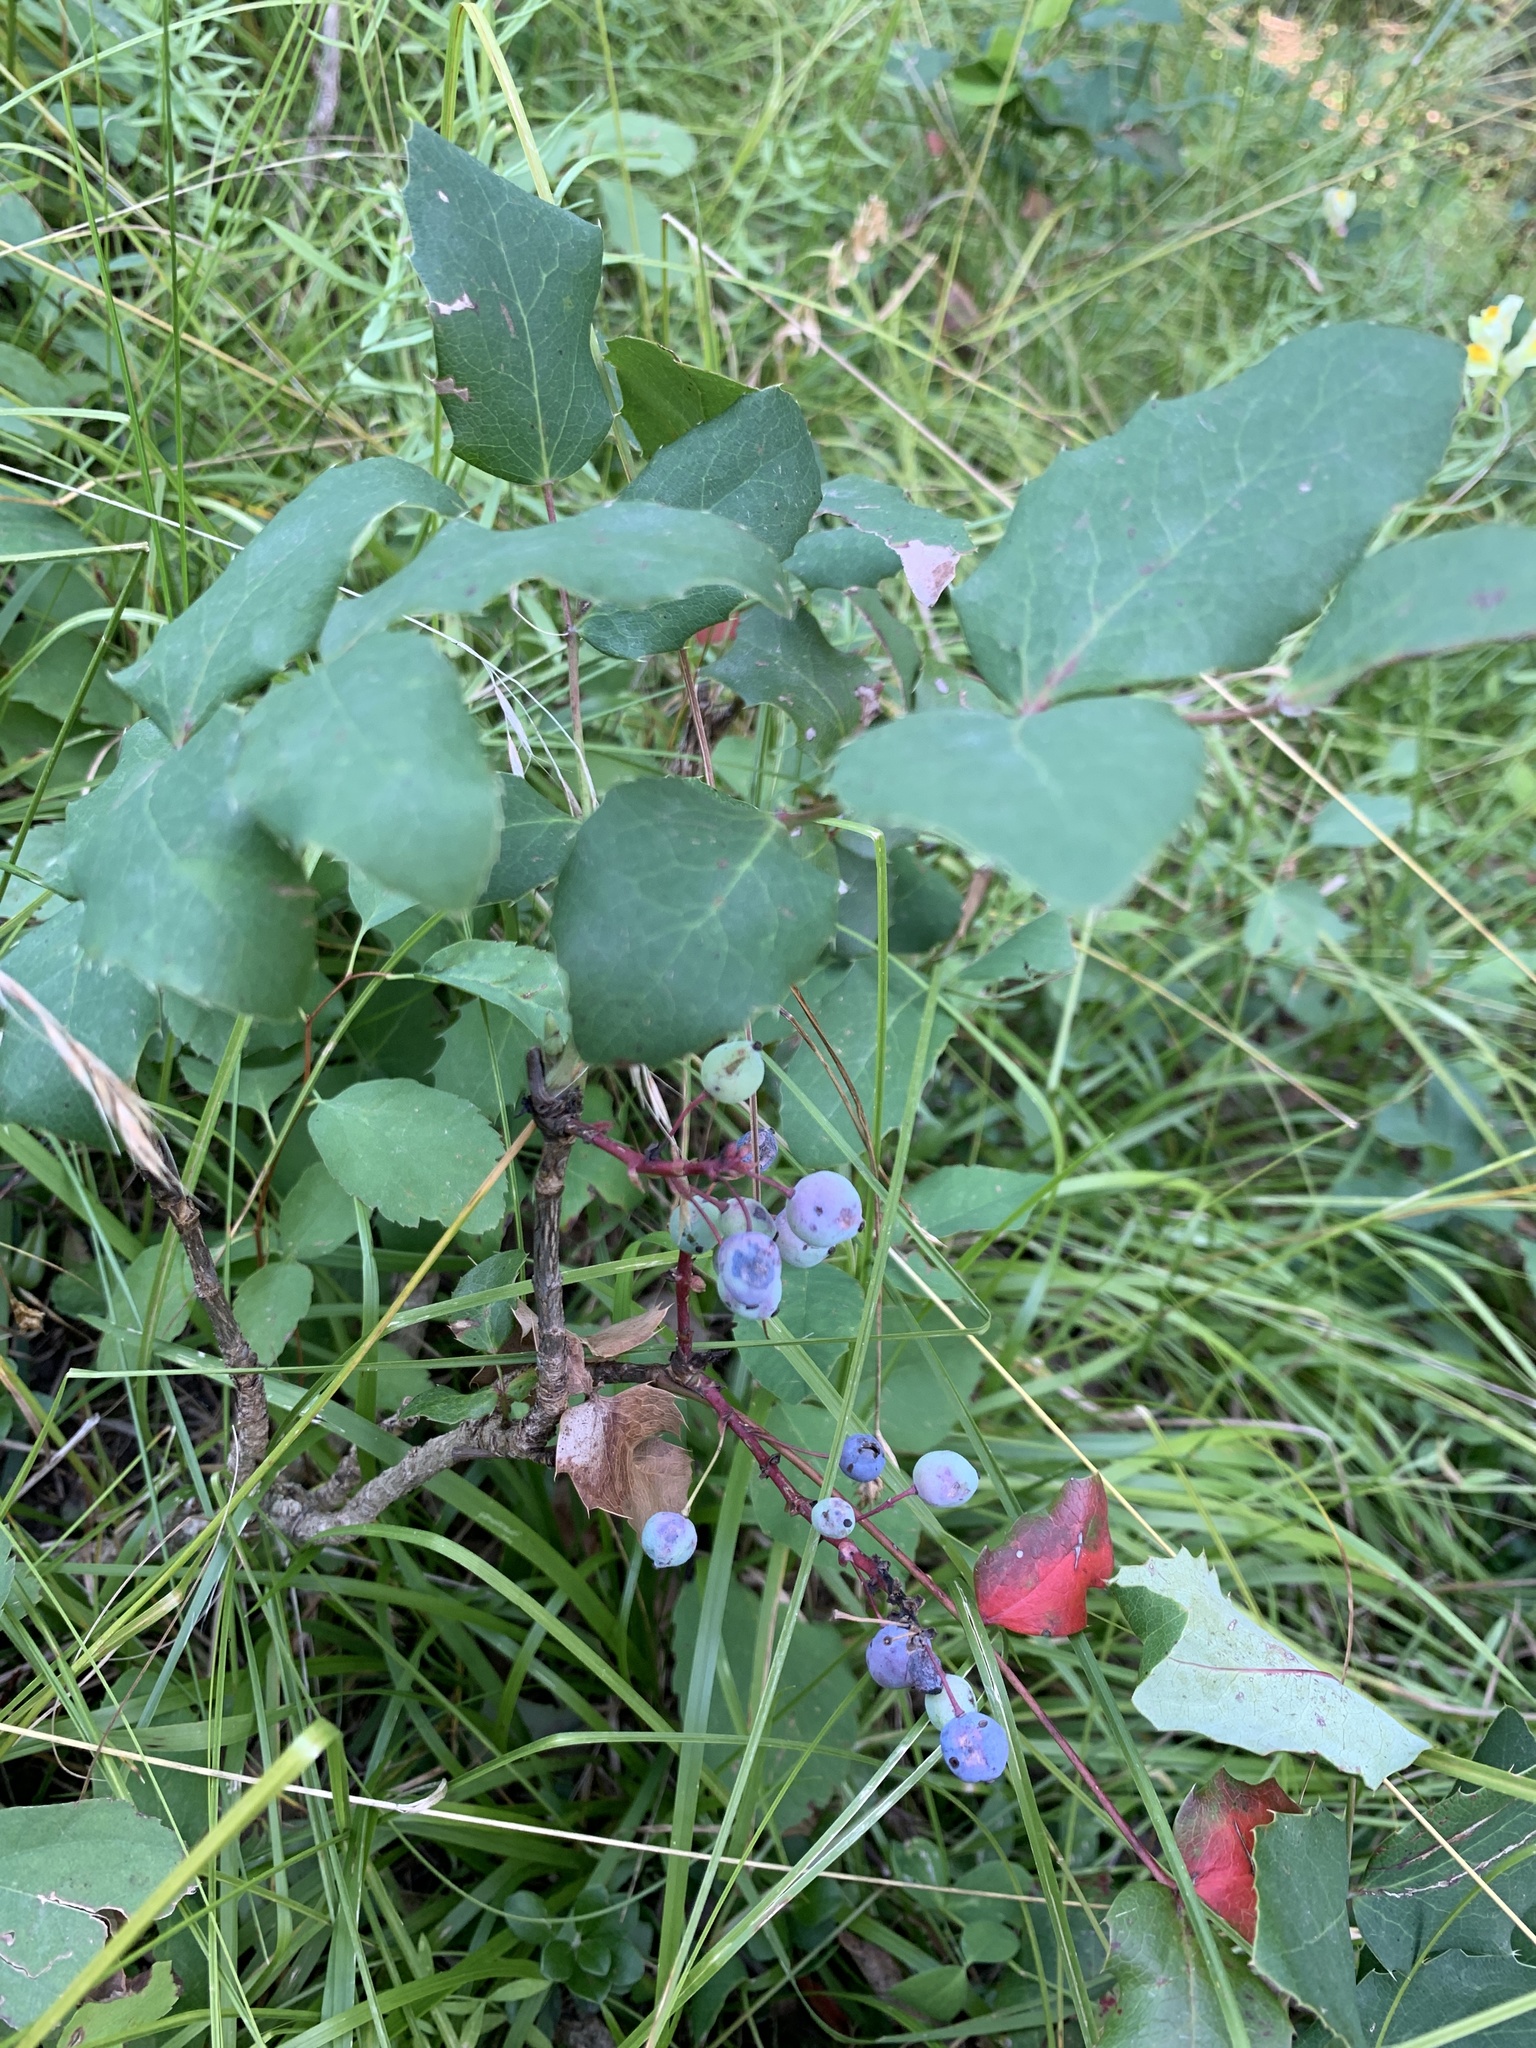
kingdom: Plantae
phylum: Tracheophyta
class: Magnoliopsida
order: Ranunculales
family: Berberidaceae
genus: Mahonia
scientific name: Mahonia repens
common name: Creeping oregon-grape
